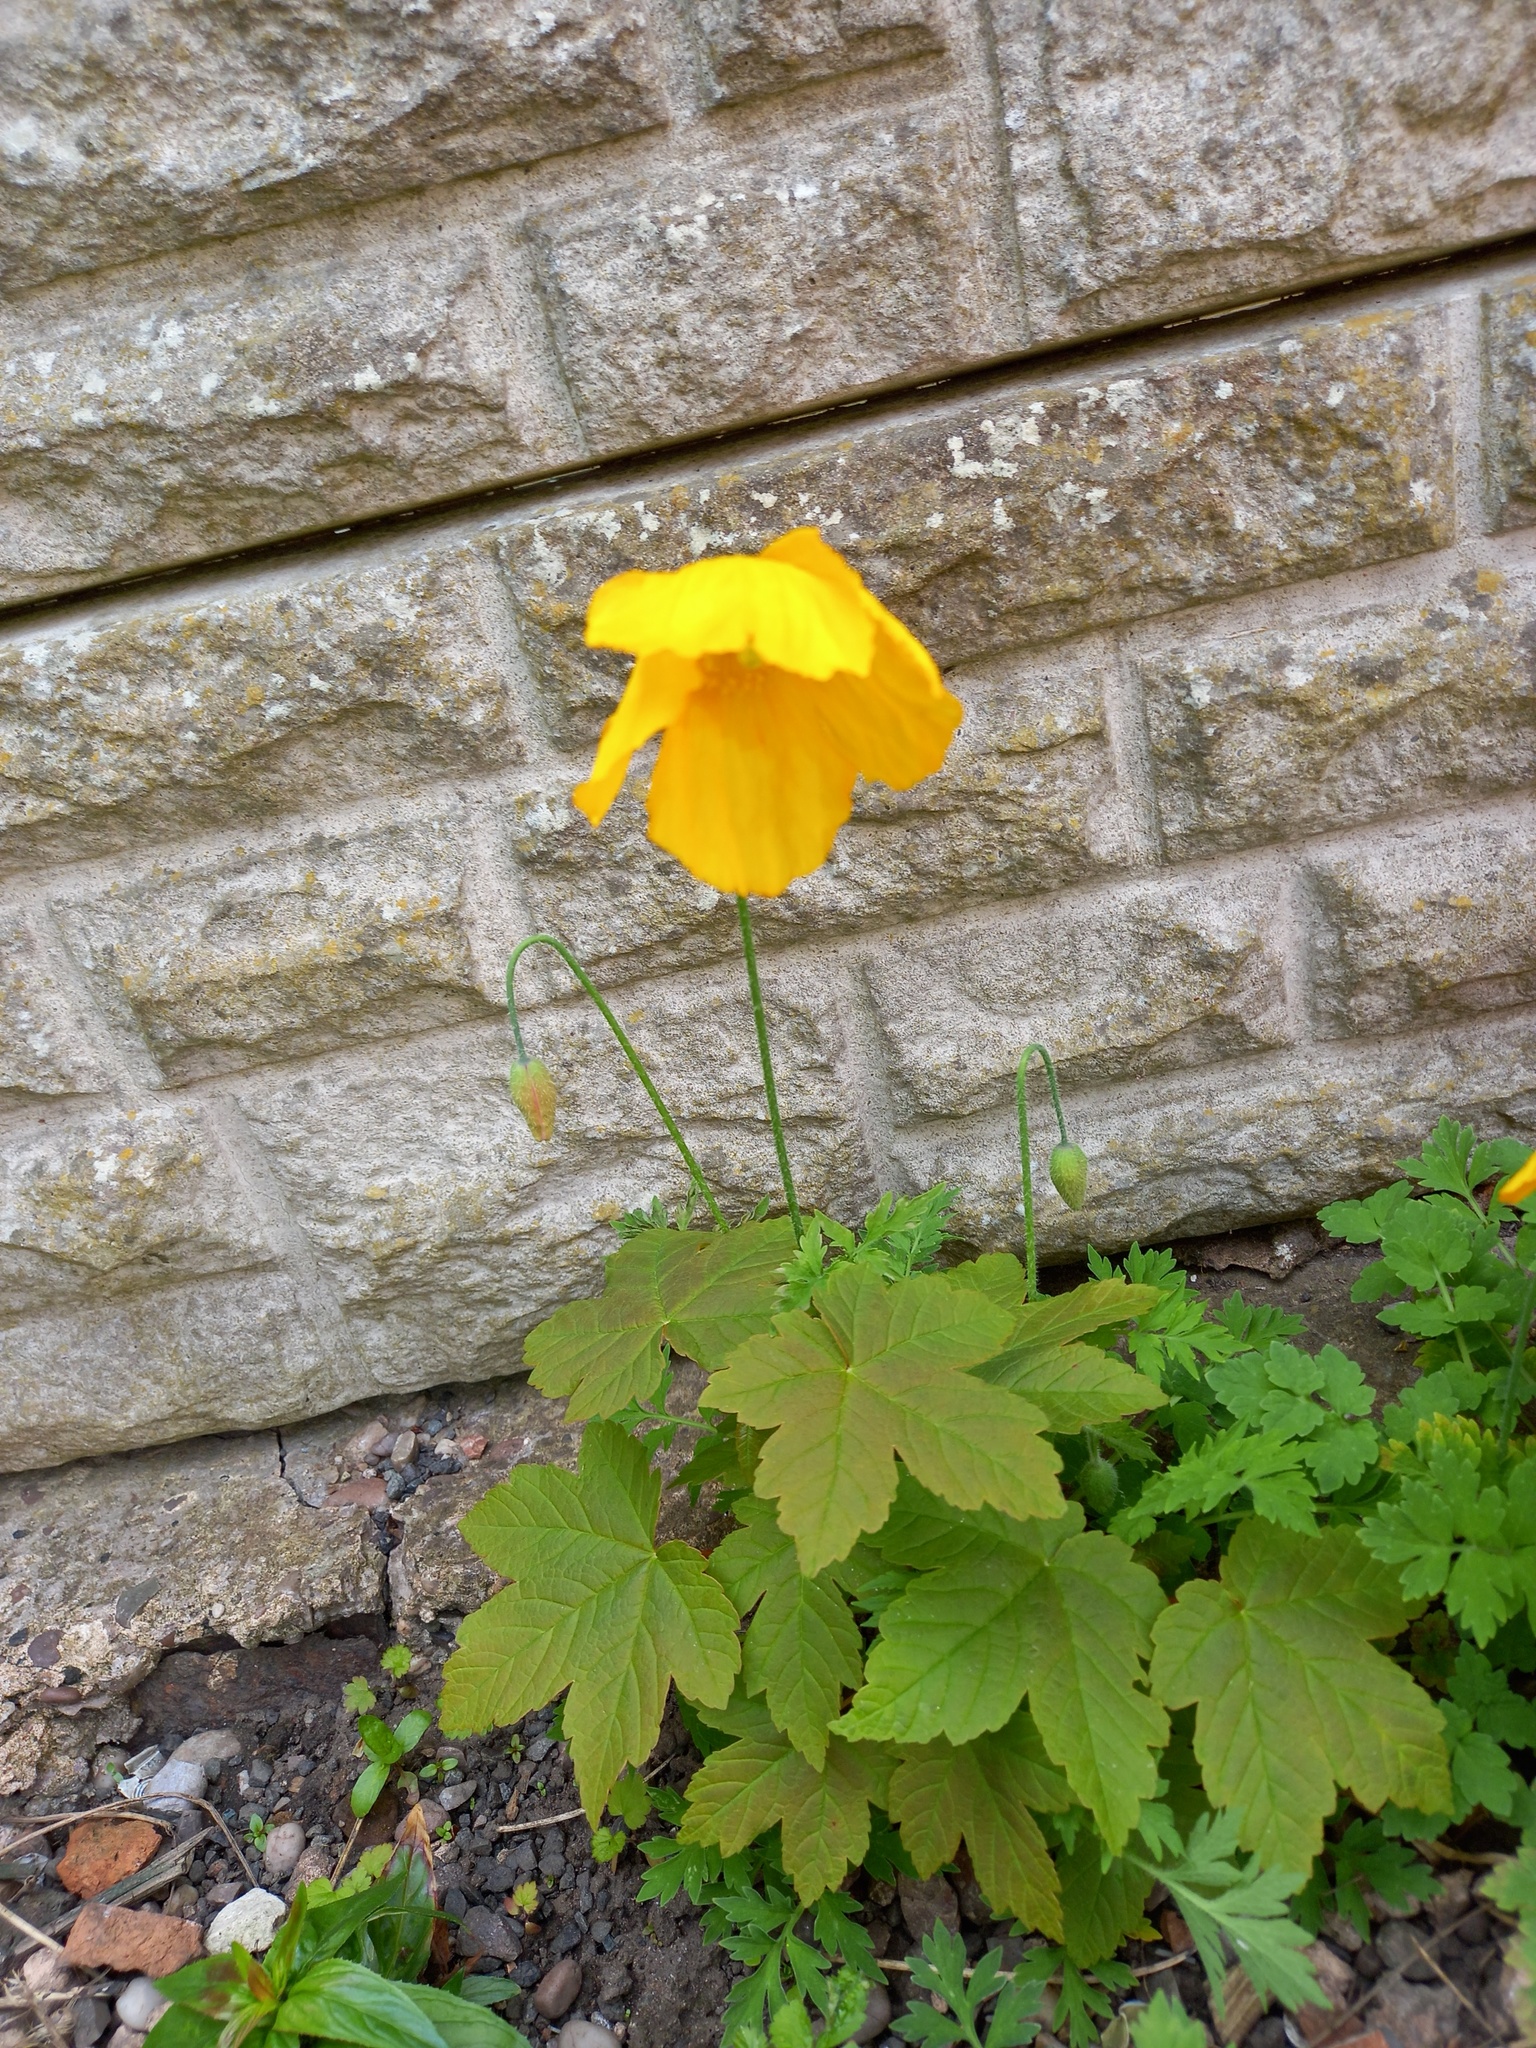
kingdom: Plantae
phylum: Tracheophyta
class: Magnoliopsida
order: Ranunculales
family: Papaveraceae
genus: Papaver
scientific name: Papaver cambricum
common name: Poppy
